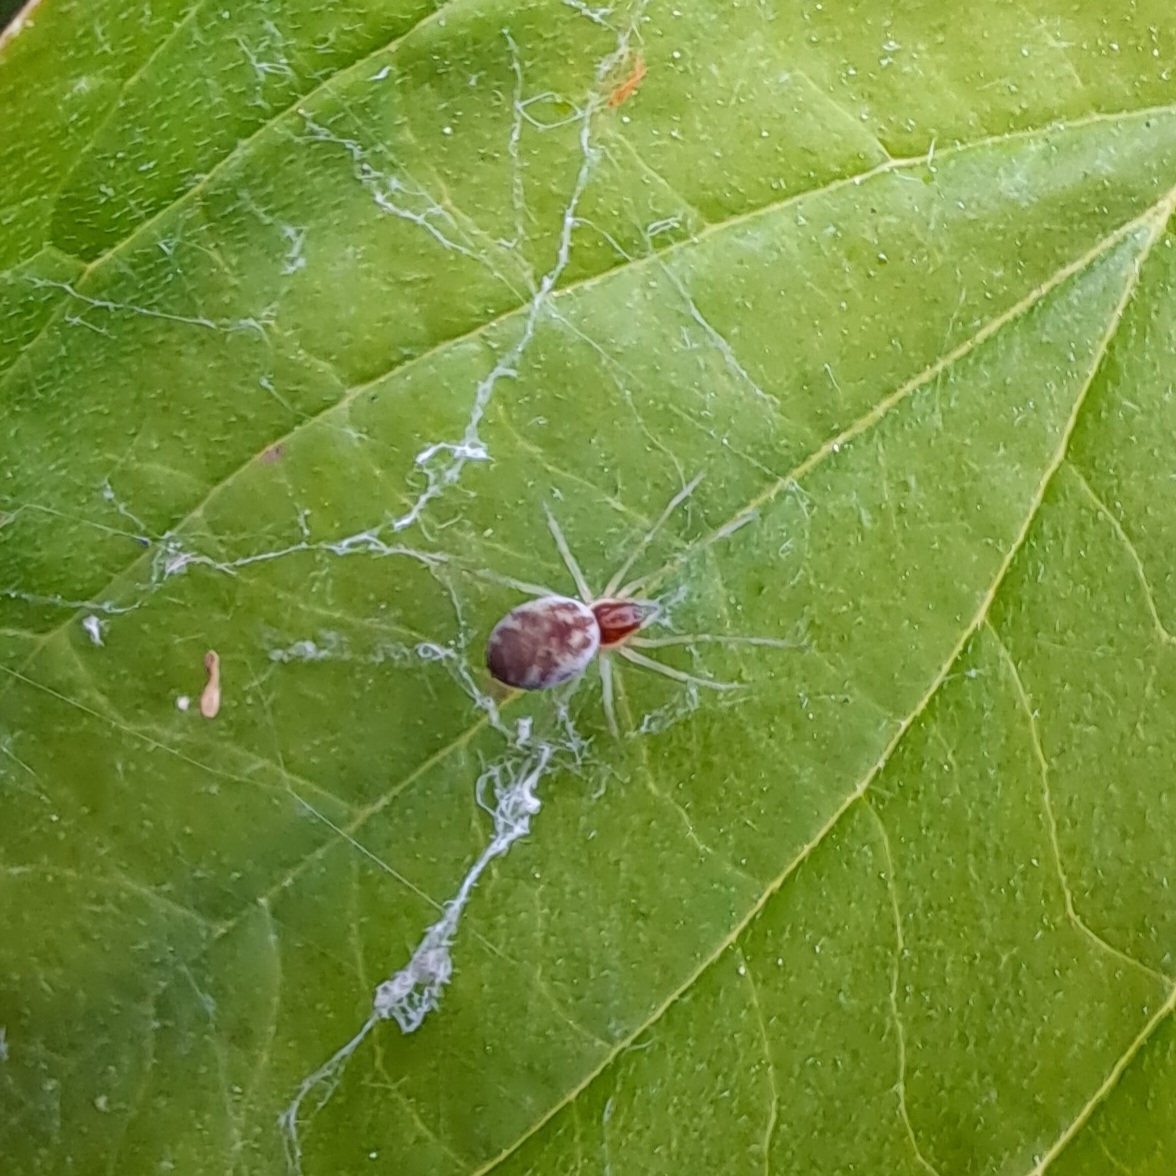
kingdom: Animalia
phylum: Arthropoda
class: Arachnida
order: Araneae
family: Dictynidae
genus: Nigma
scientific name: Nigma flavescens
